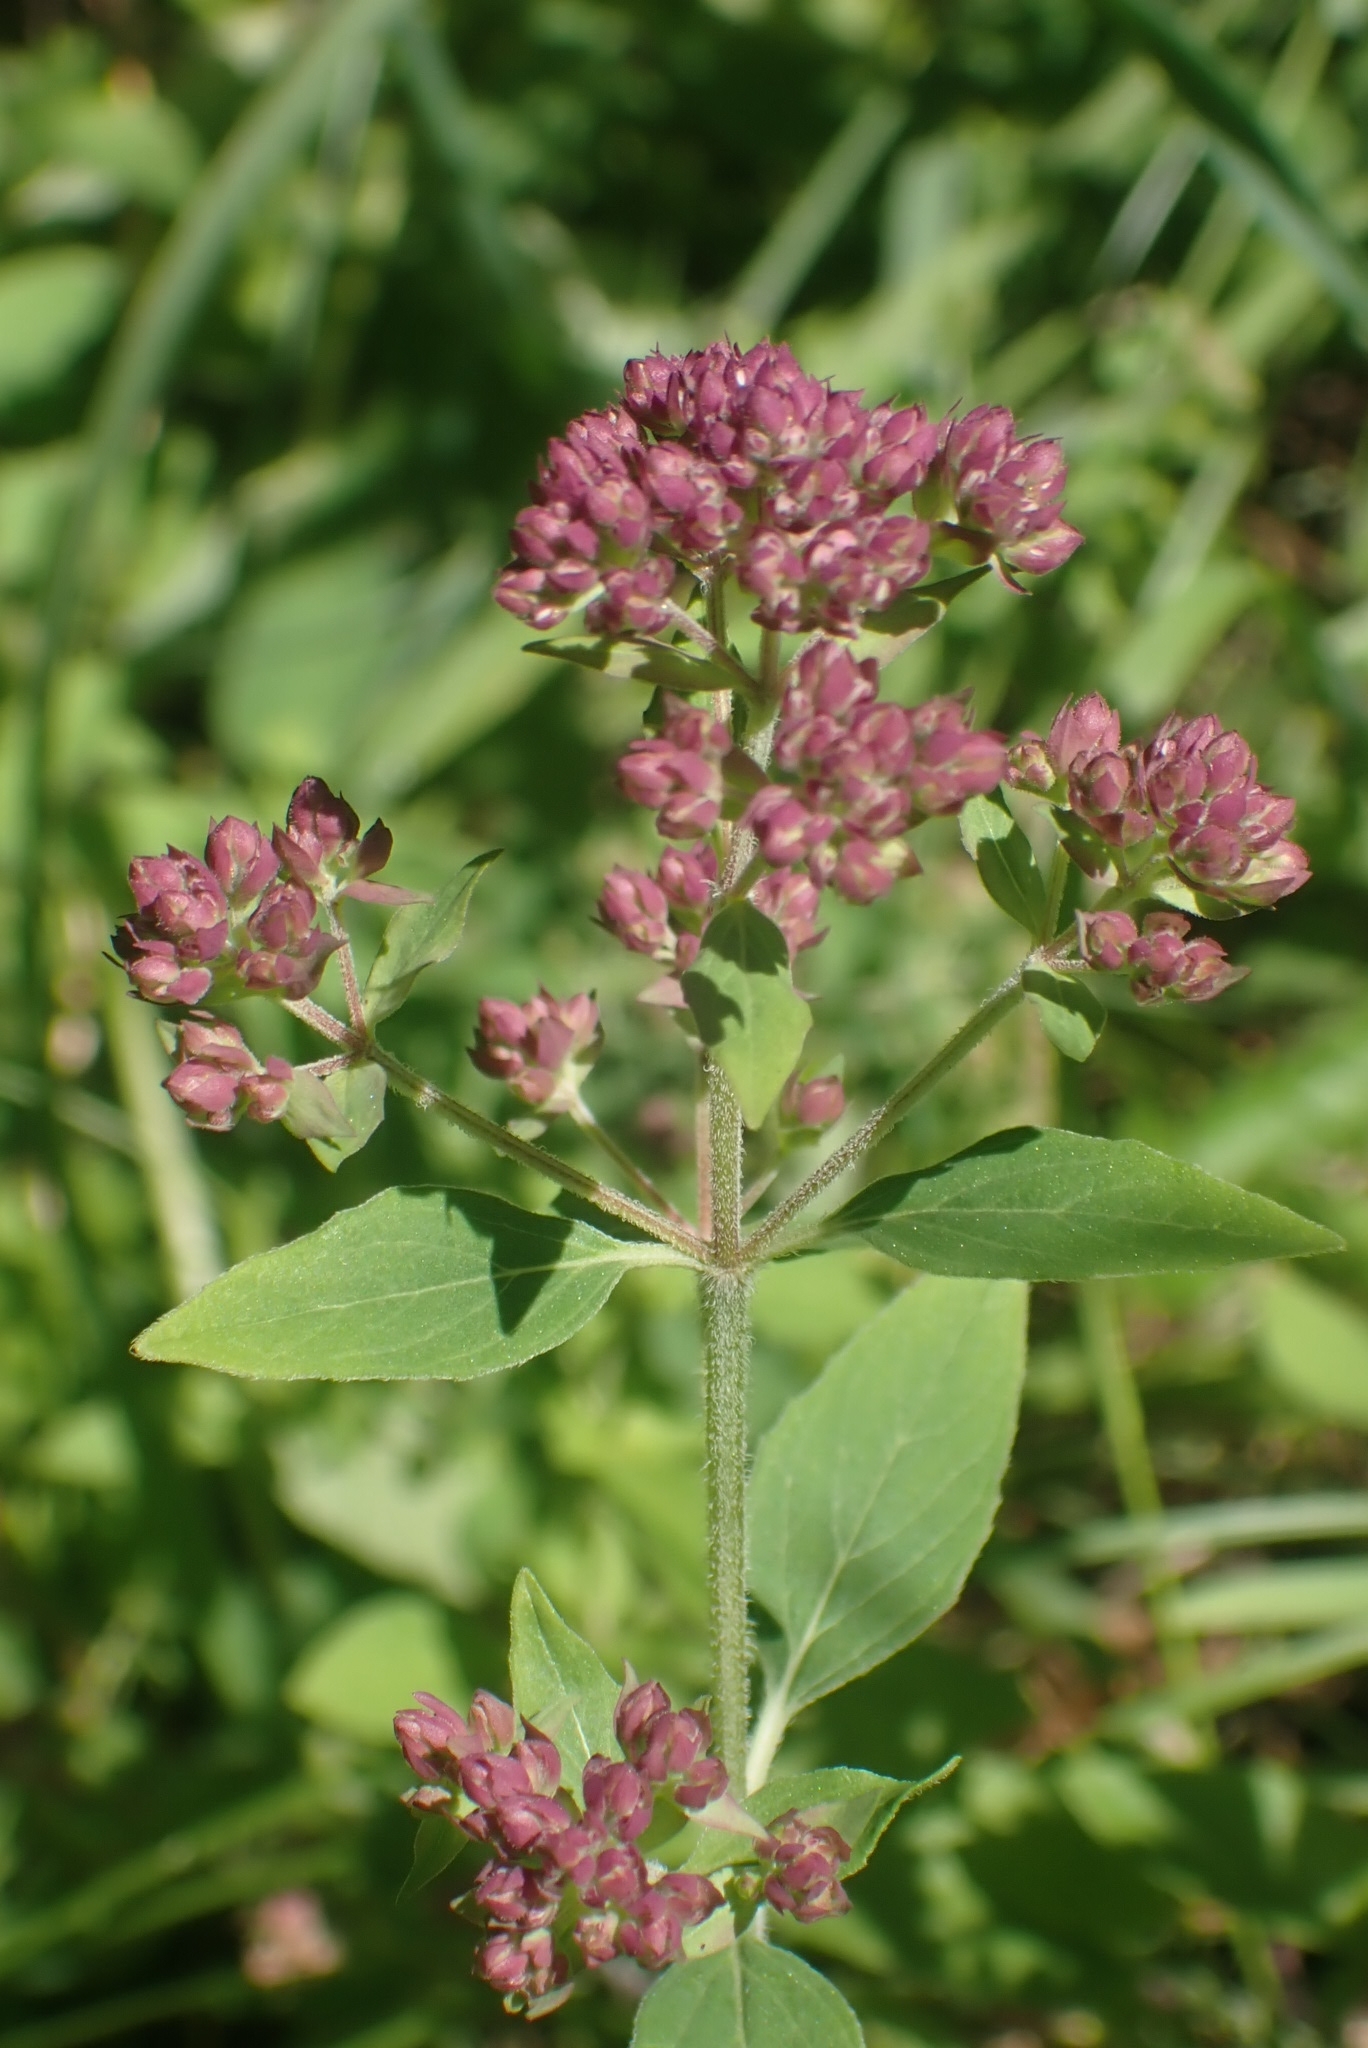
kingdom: Plantae
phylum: Tracheophyta
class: Magnoliopsida
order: Lamiales
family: Lamiaceae
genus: Origanum
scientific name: Origanum vulgare
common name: Wild marjoram
